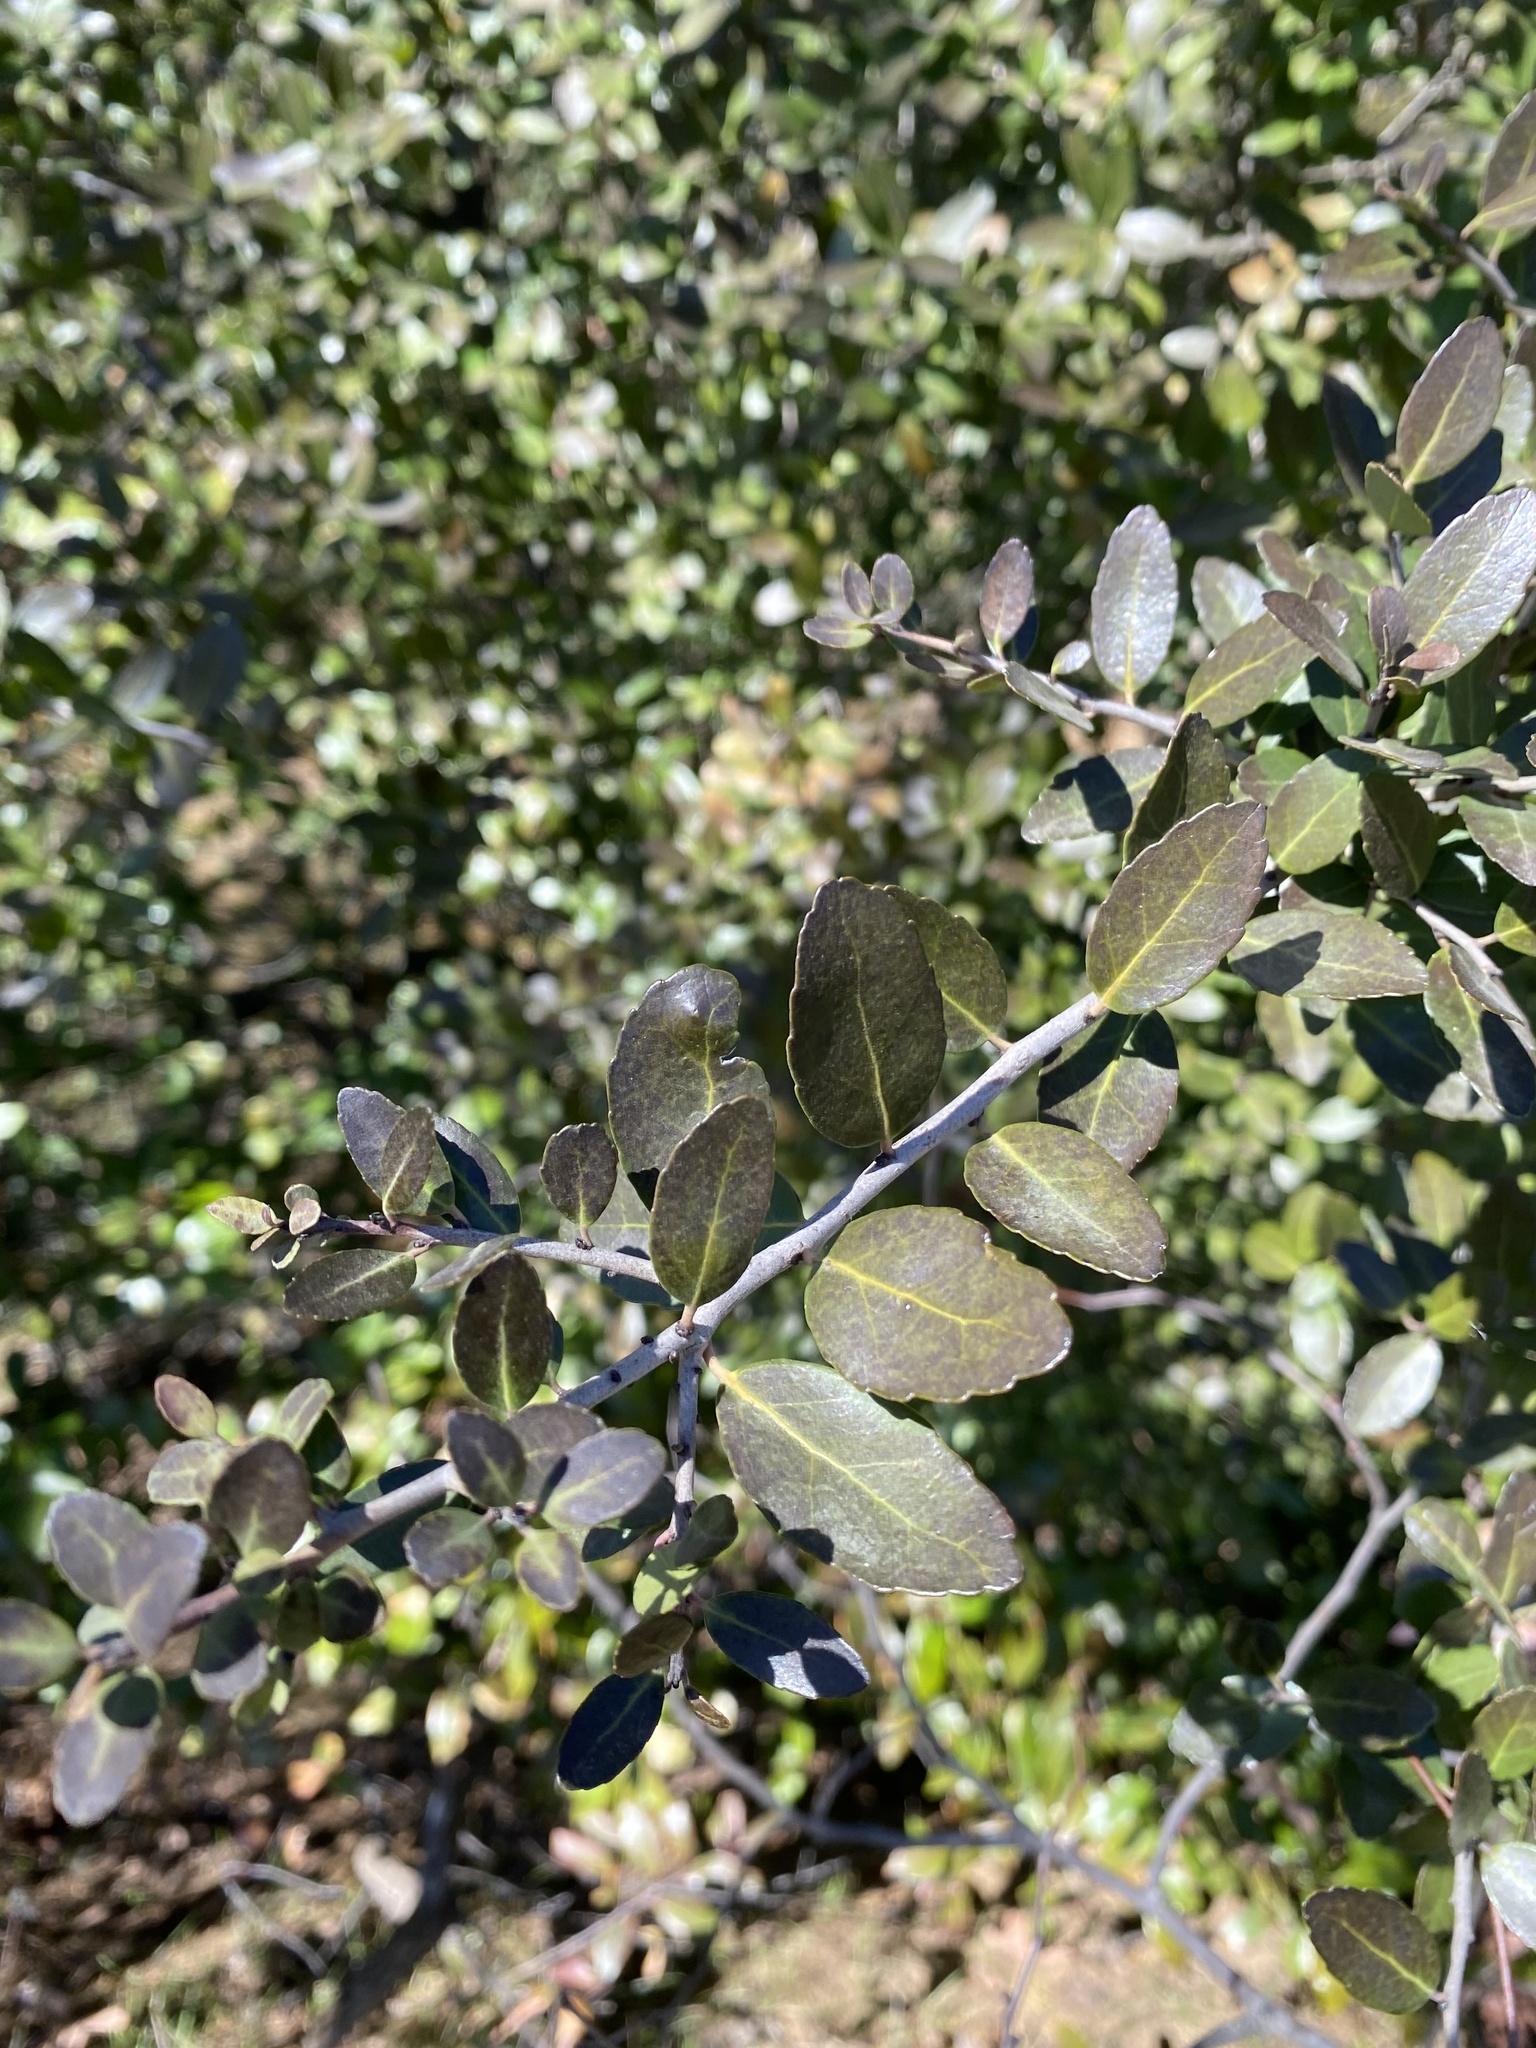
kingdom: Plantae
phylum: Tracheophyta
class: Magnoliopsida
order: Aquifoliales
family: Aquifoliaceae
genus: Ilex
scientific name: Ilex vomitoria
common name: Yaupon holly
